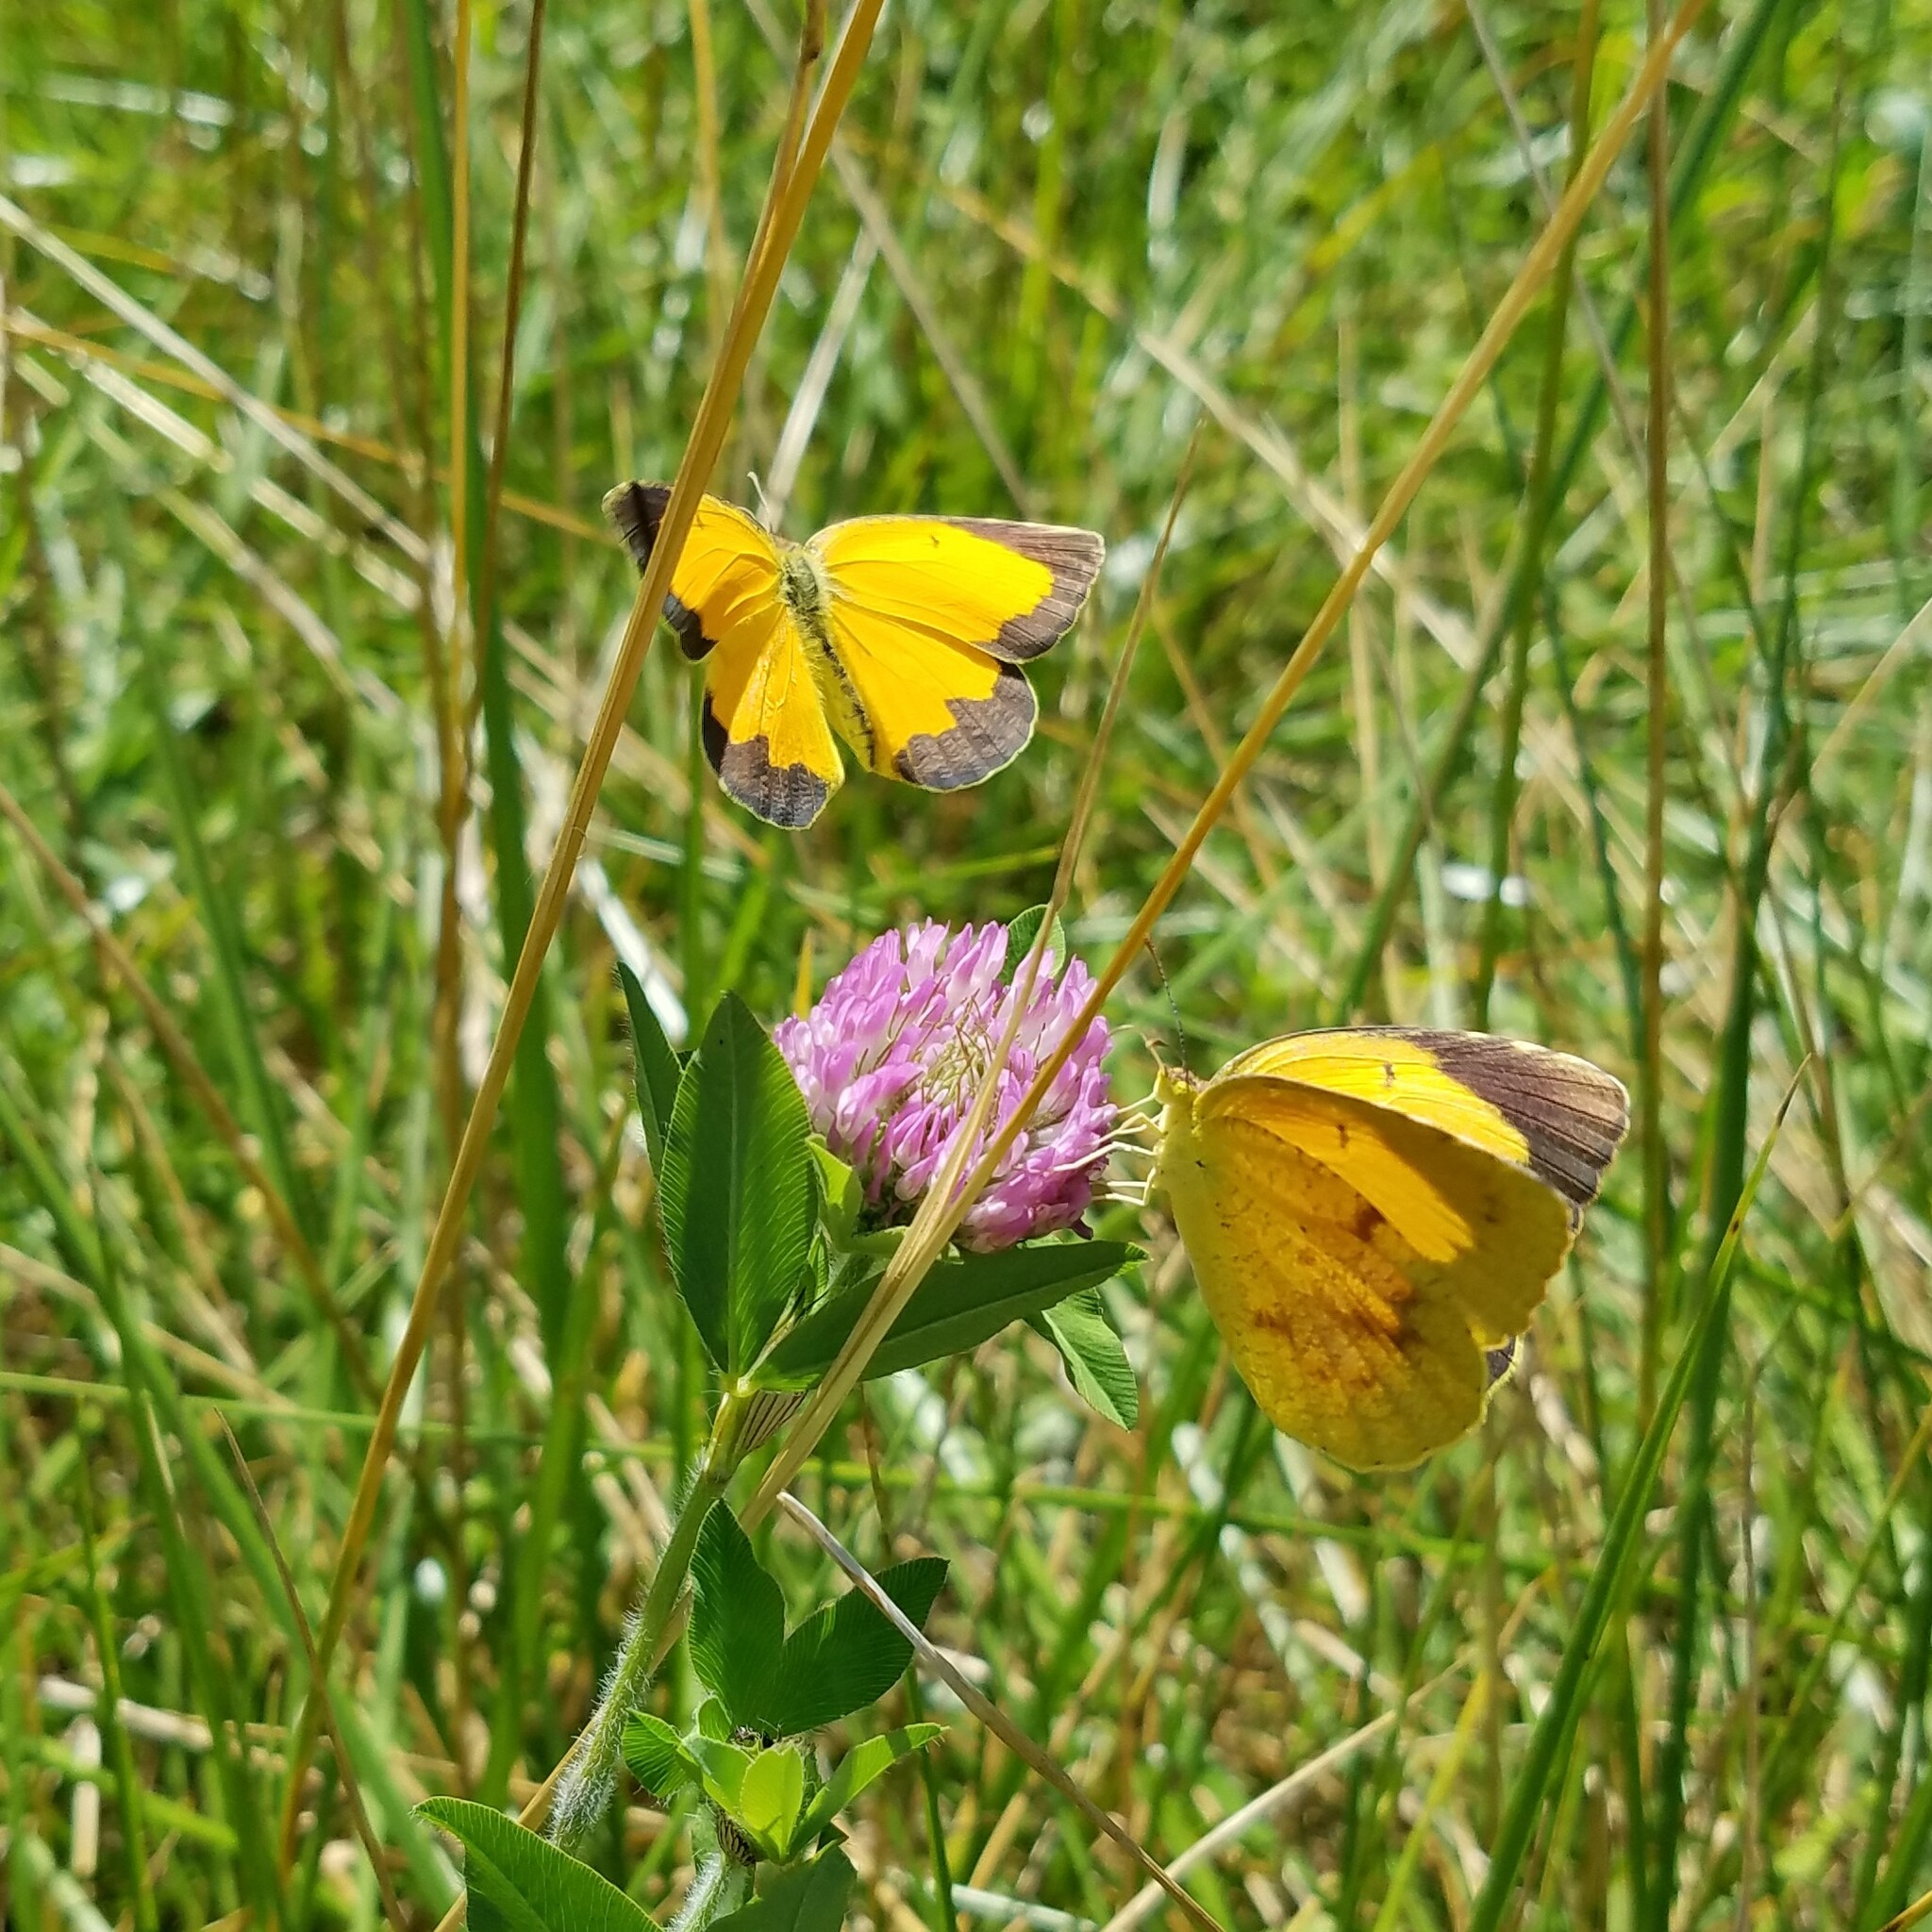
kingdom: Animalia
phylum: Arthropoda
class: Insecta
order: Lepidoptera
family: Pieridae
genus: Abaeis
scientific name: Abaeis nicippe
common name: Sleepy orange
